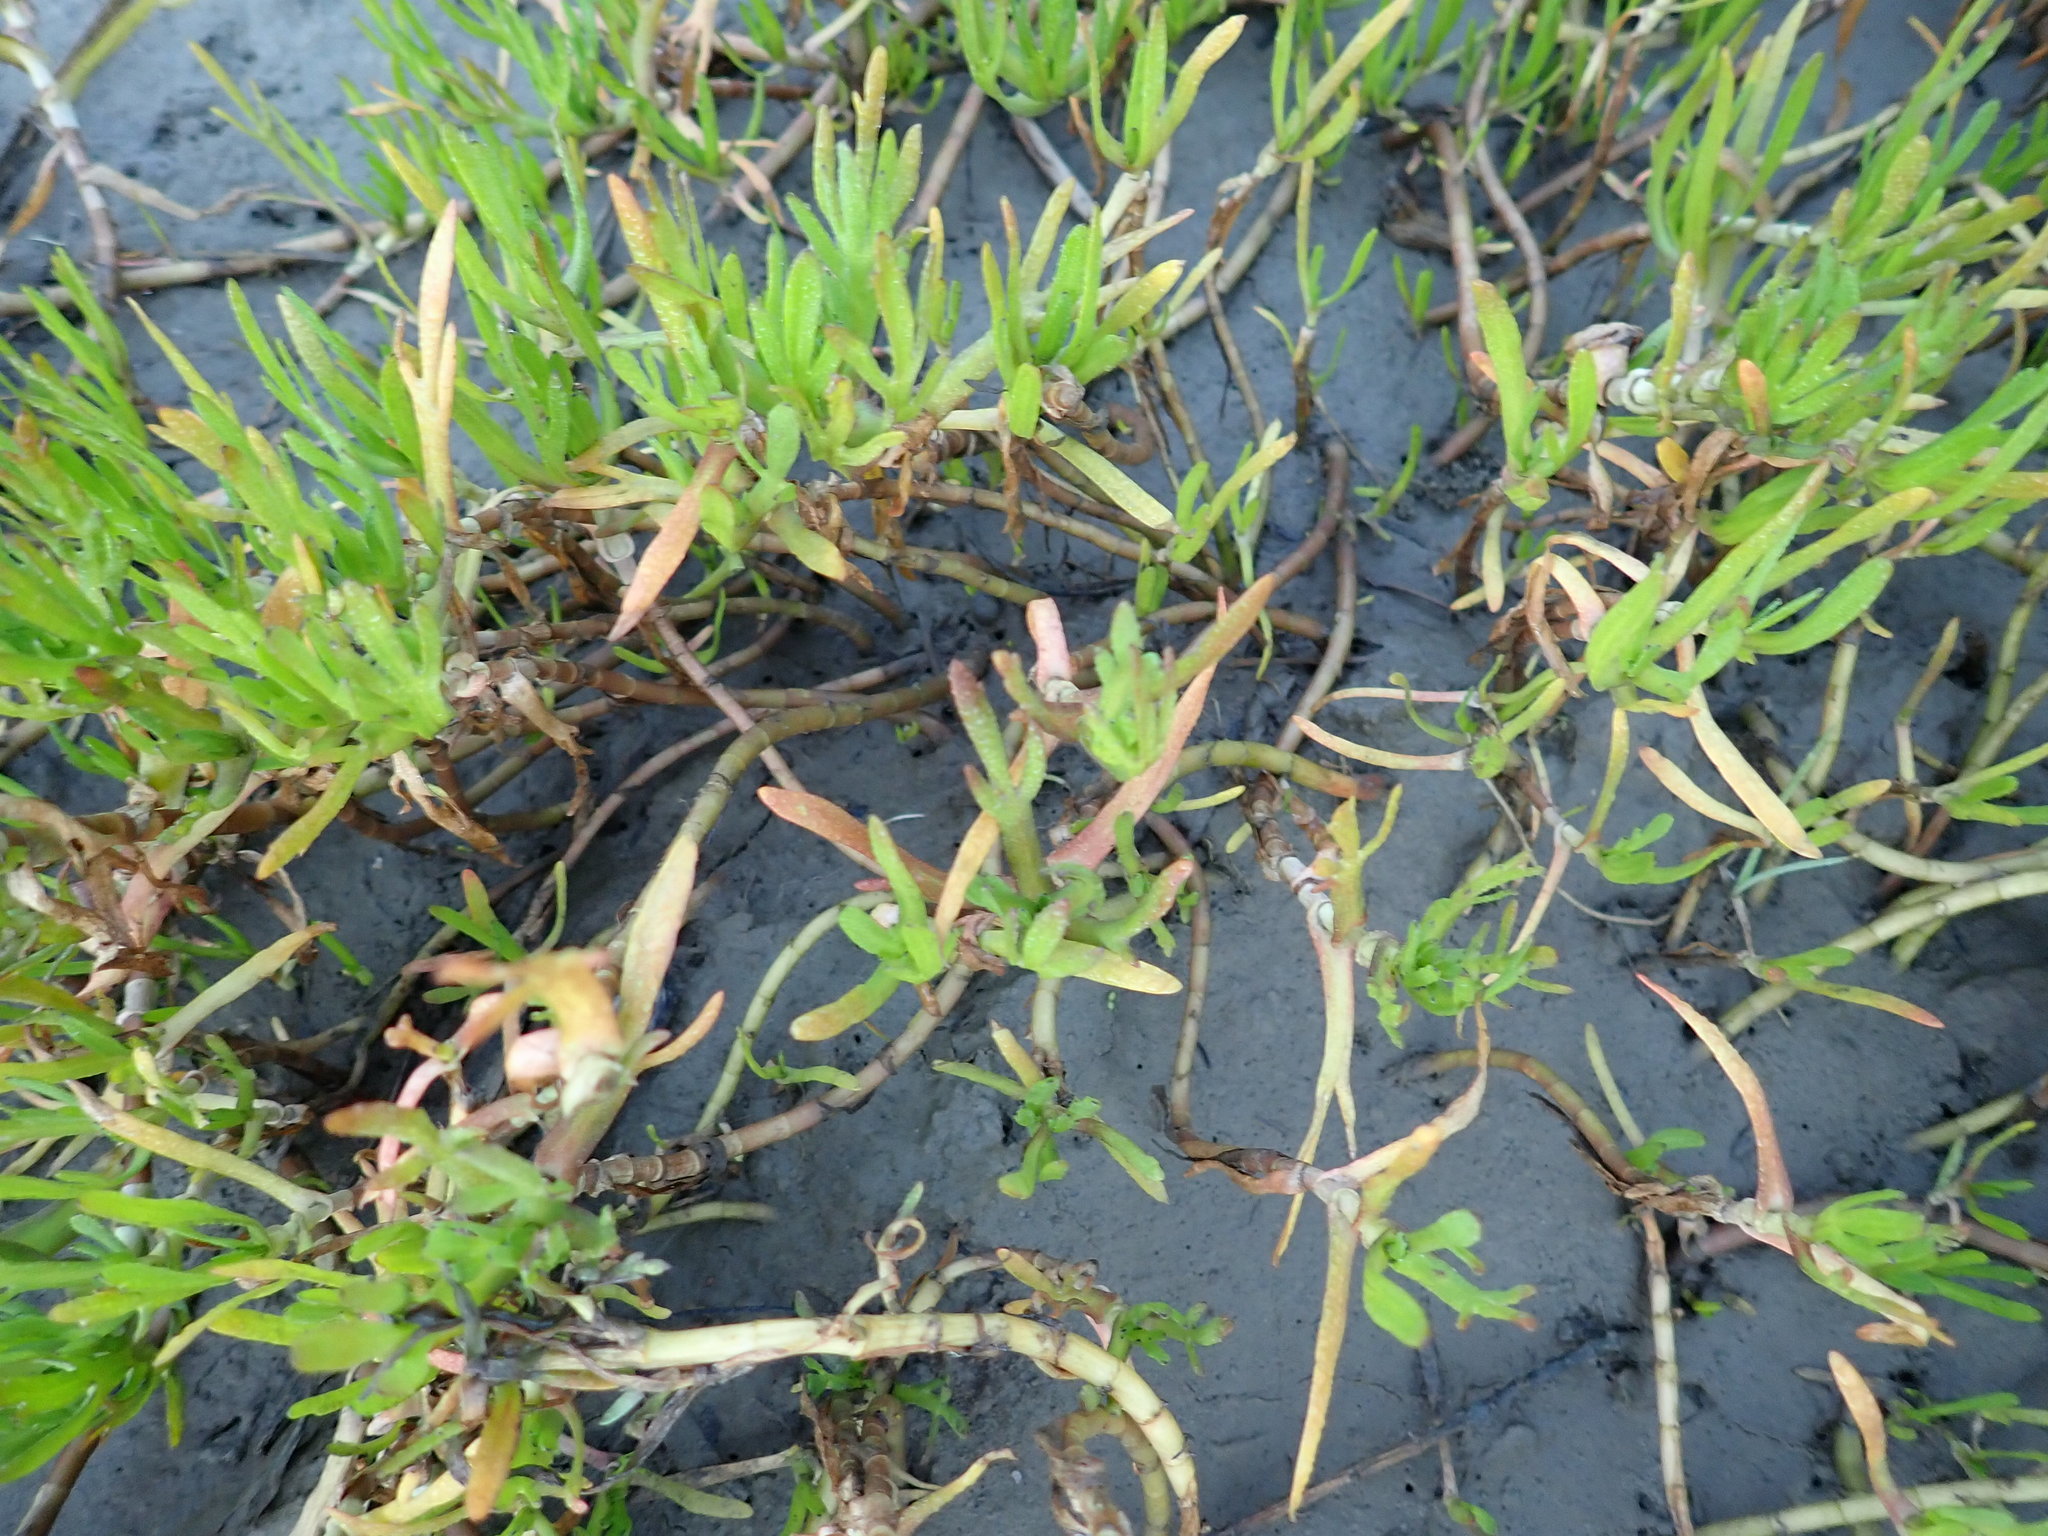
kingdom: Plantae
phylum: Tracheophyta
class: Magnoliopsida
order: Asterales
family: Asteraceae
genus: Cotula
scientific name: Cotula coronopifolia
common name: Buttonweed
